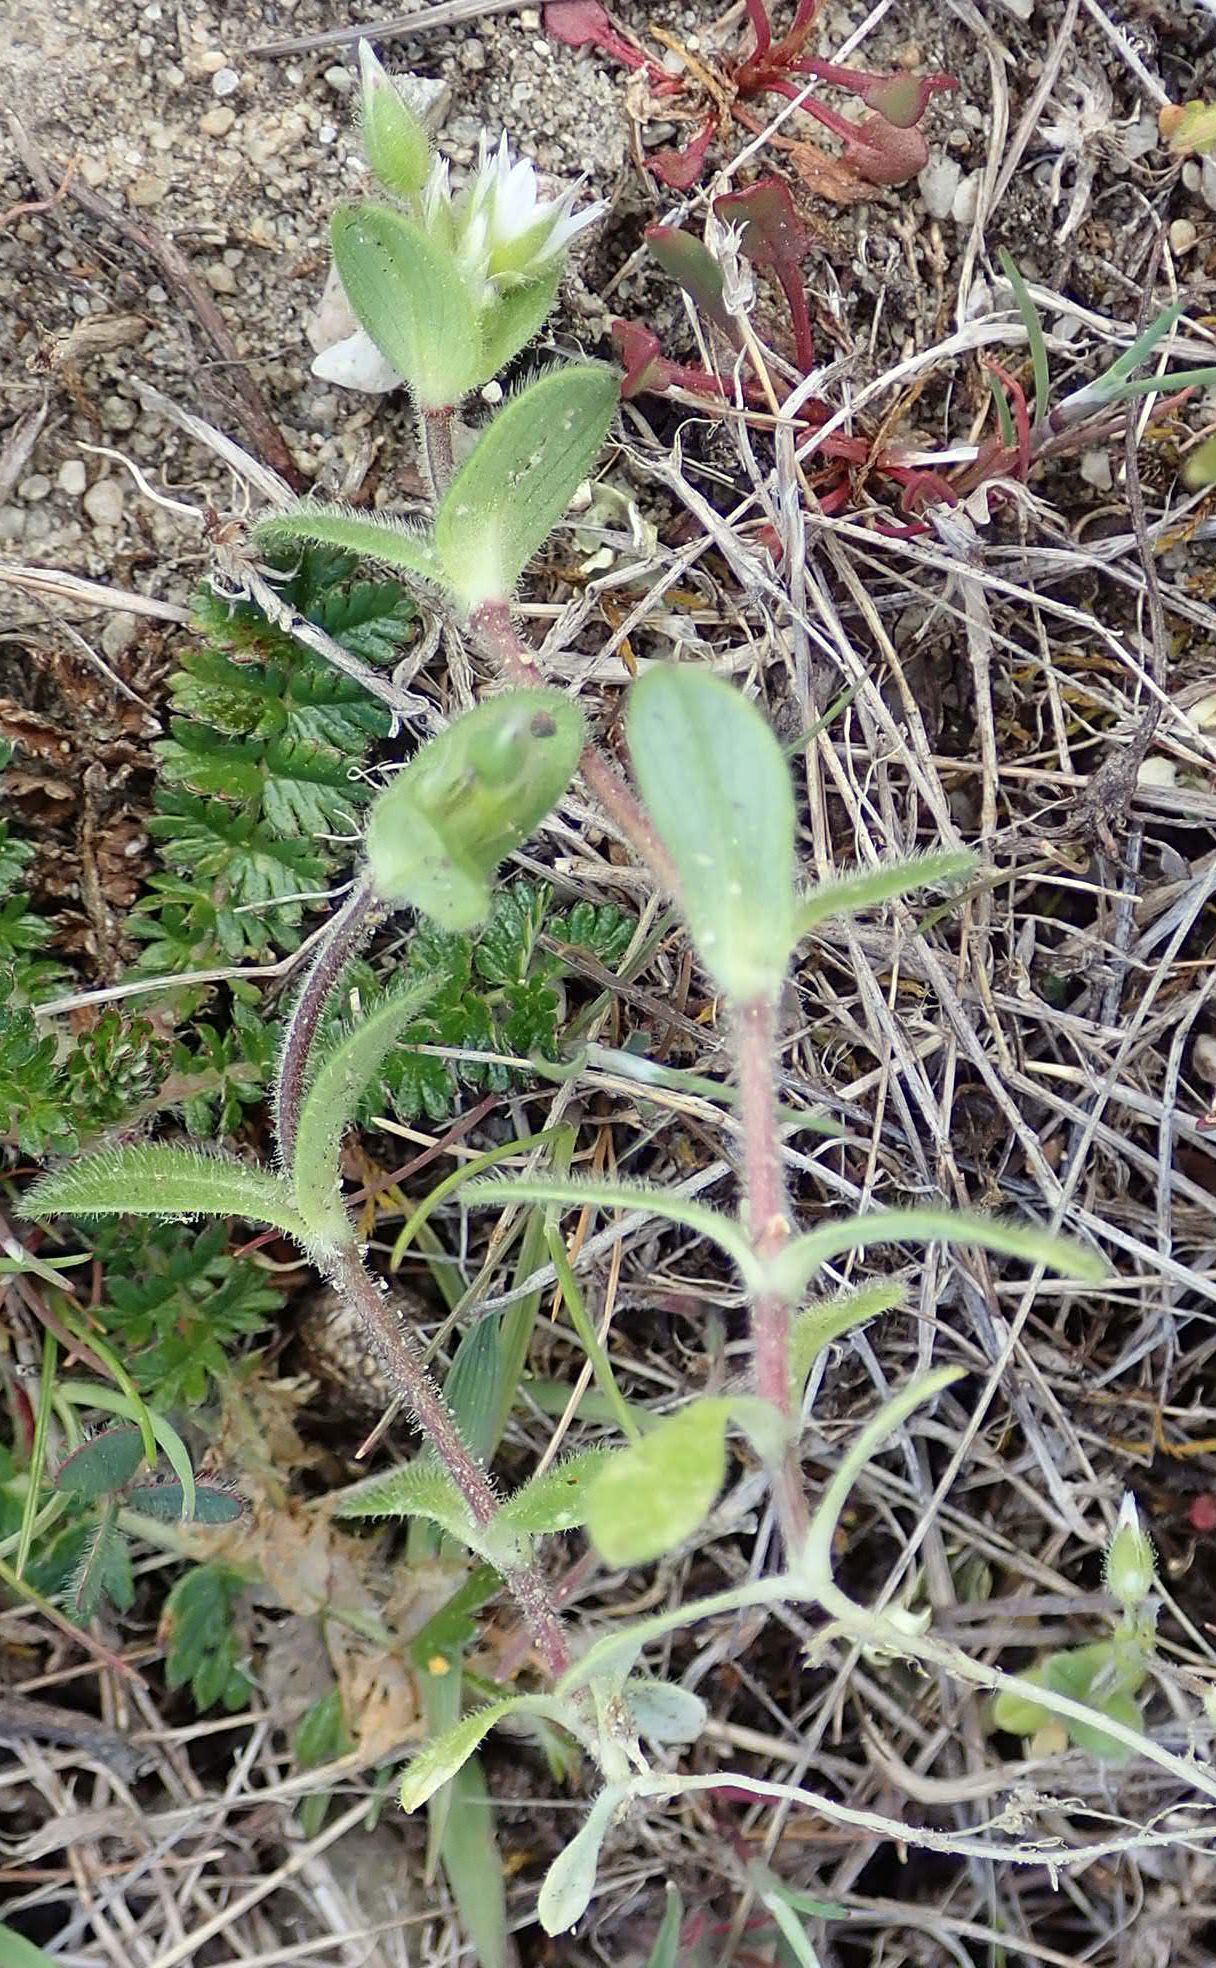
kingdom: Plantae
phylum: Tracheophyta
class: Magnoliopsida
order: Caryophyllales
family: Caryophyllaceae
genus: Cerastium
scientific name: Cerastium glomeratum
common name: Sticky chickweed
